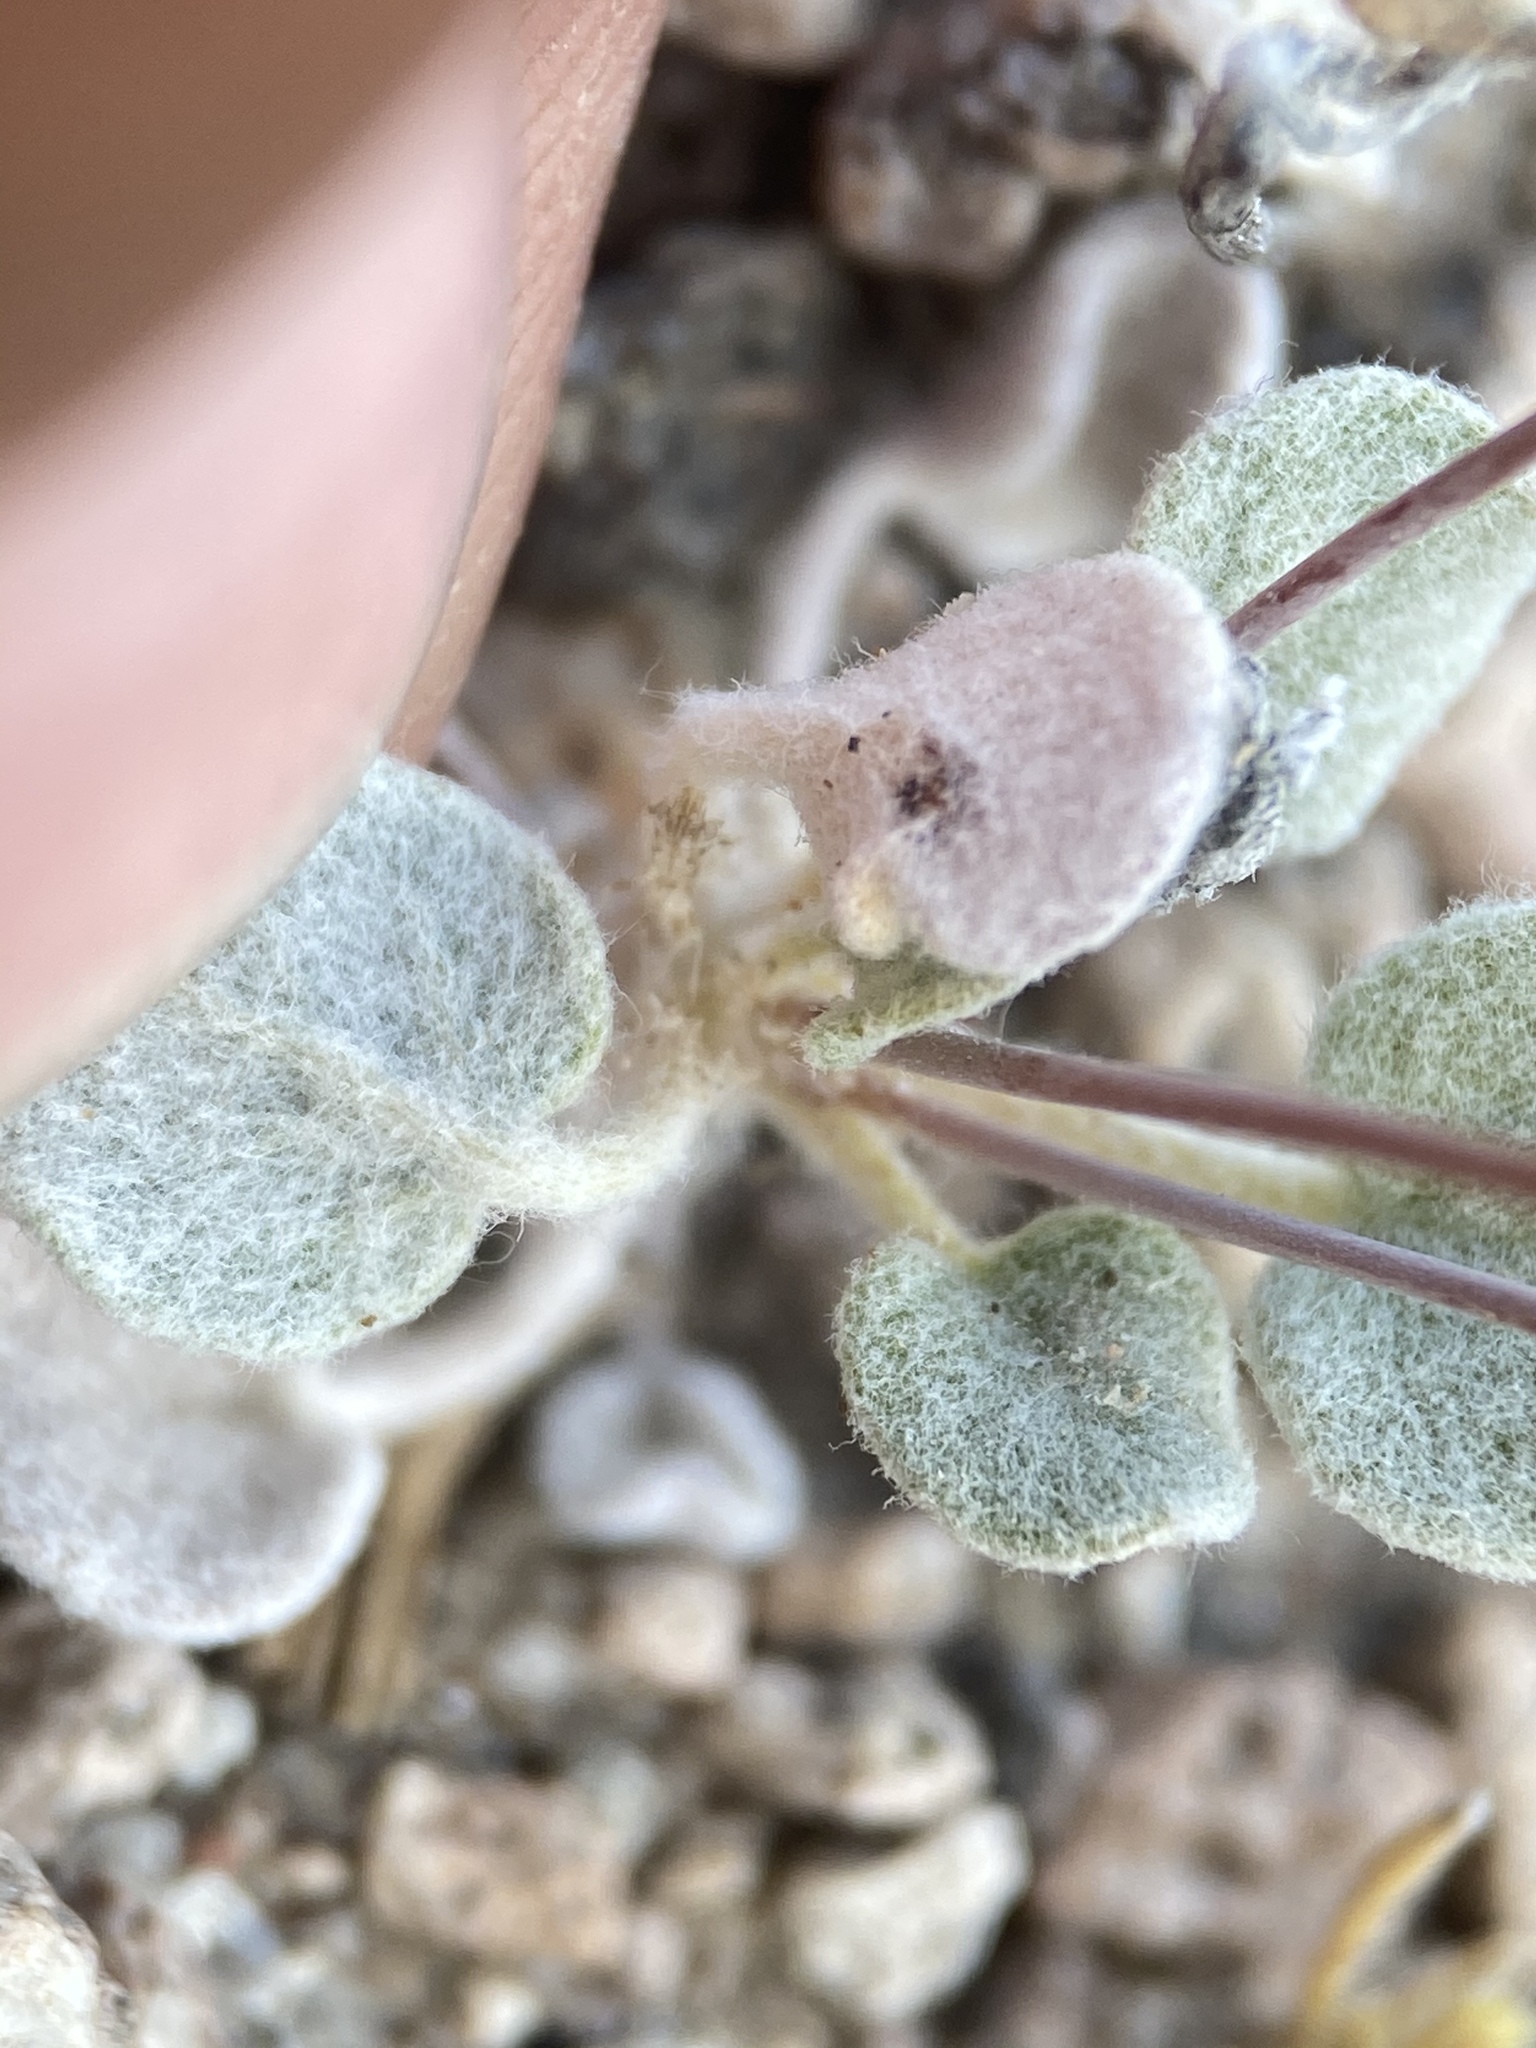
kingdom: Plantae
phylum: Tracheophyta
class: Magnoliopsida
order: Caryophyllales
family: Polygonaceae
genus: Eriogonum
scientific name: Eriogonum deflexum
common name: Skeleton-weed
